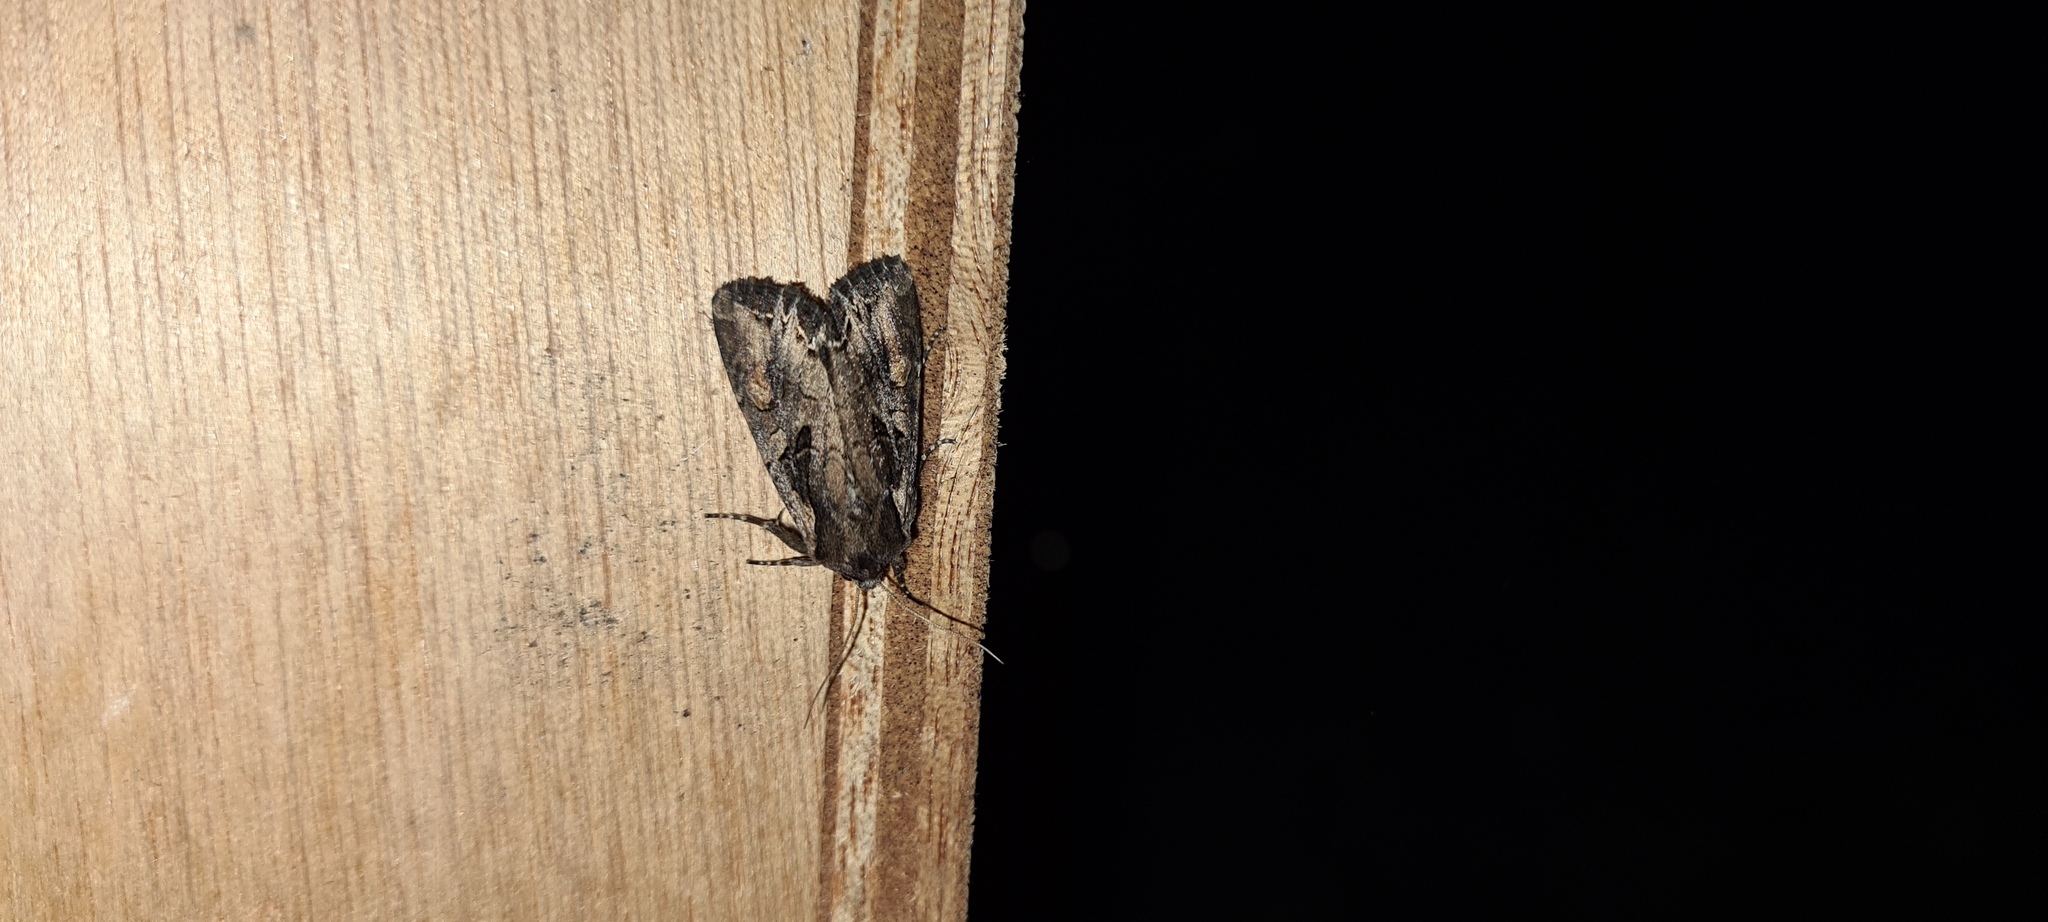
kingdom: Animalia
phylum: Arthropoda
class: Insecta
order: Lepidoptera
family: Noctuidae
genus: Lacanobia
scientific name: Lacanobia suasa
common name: Dog's tooth
